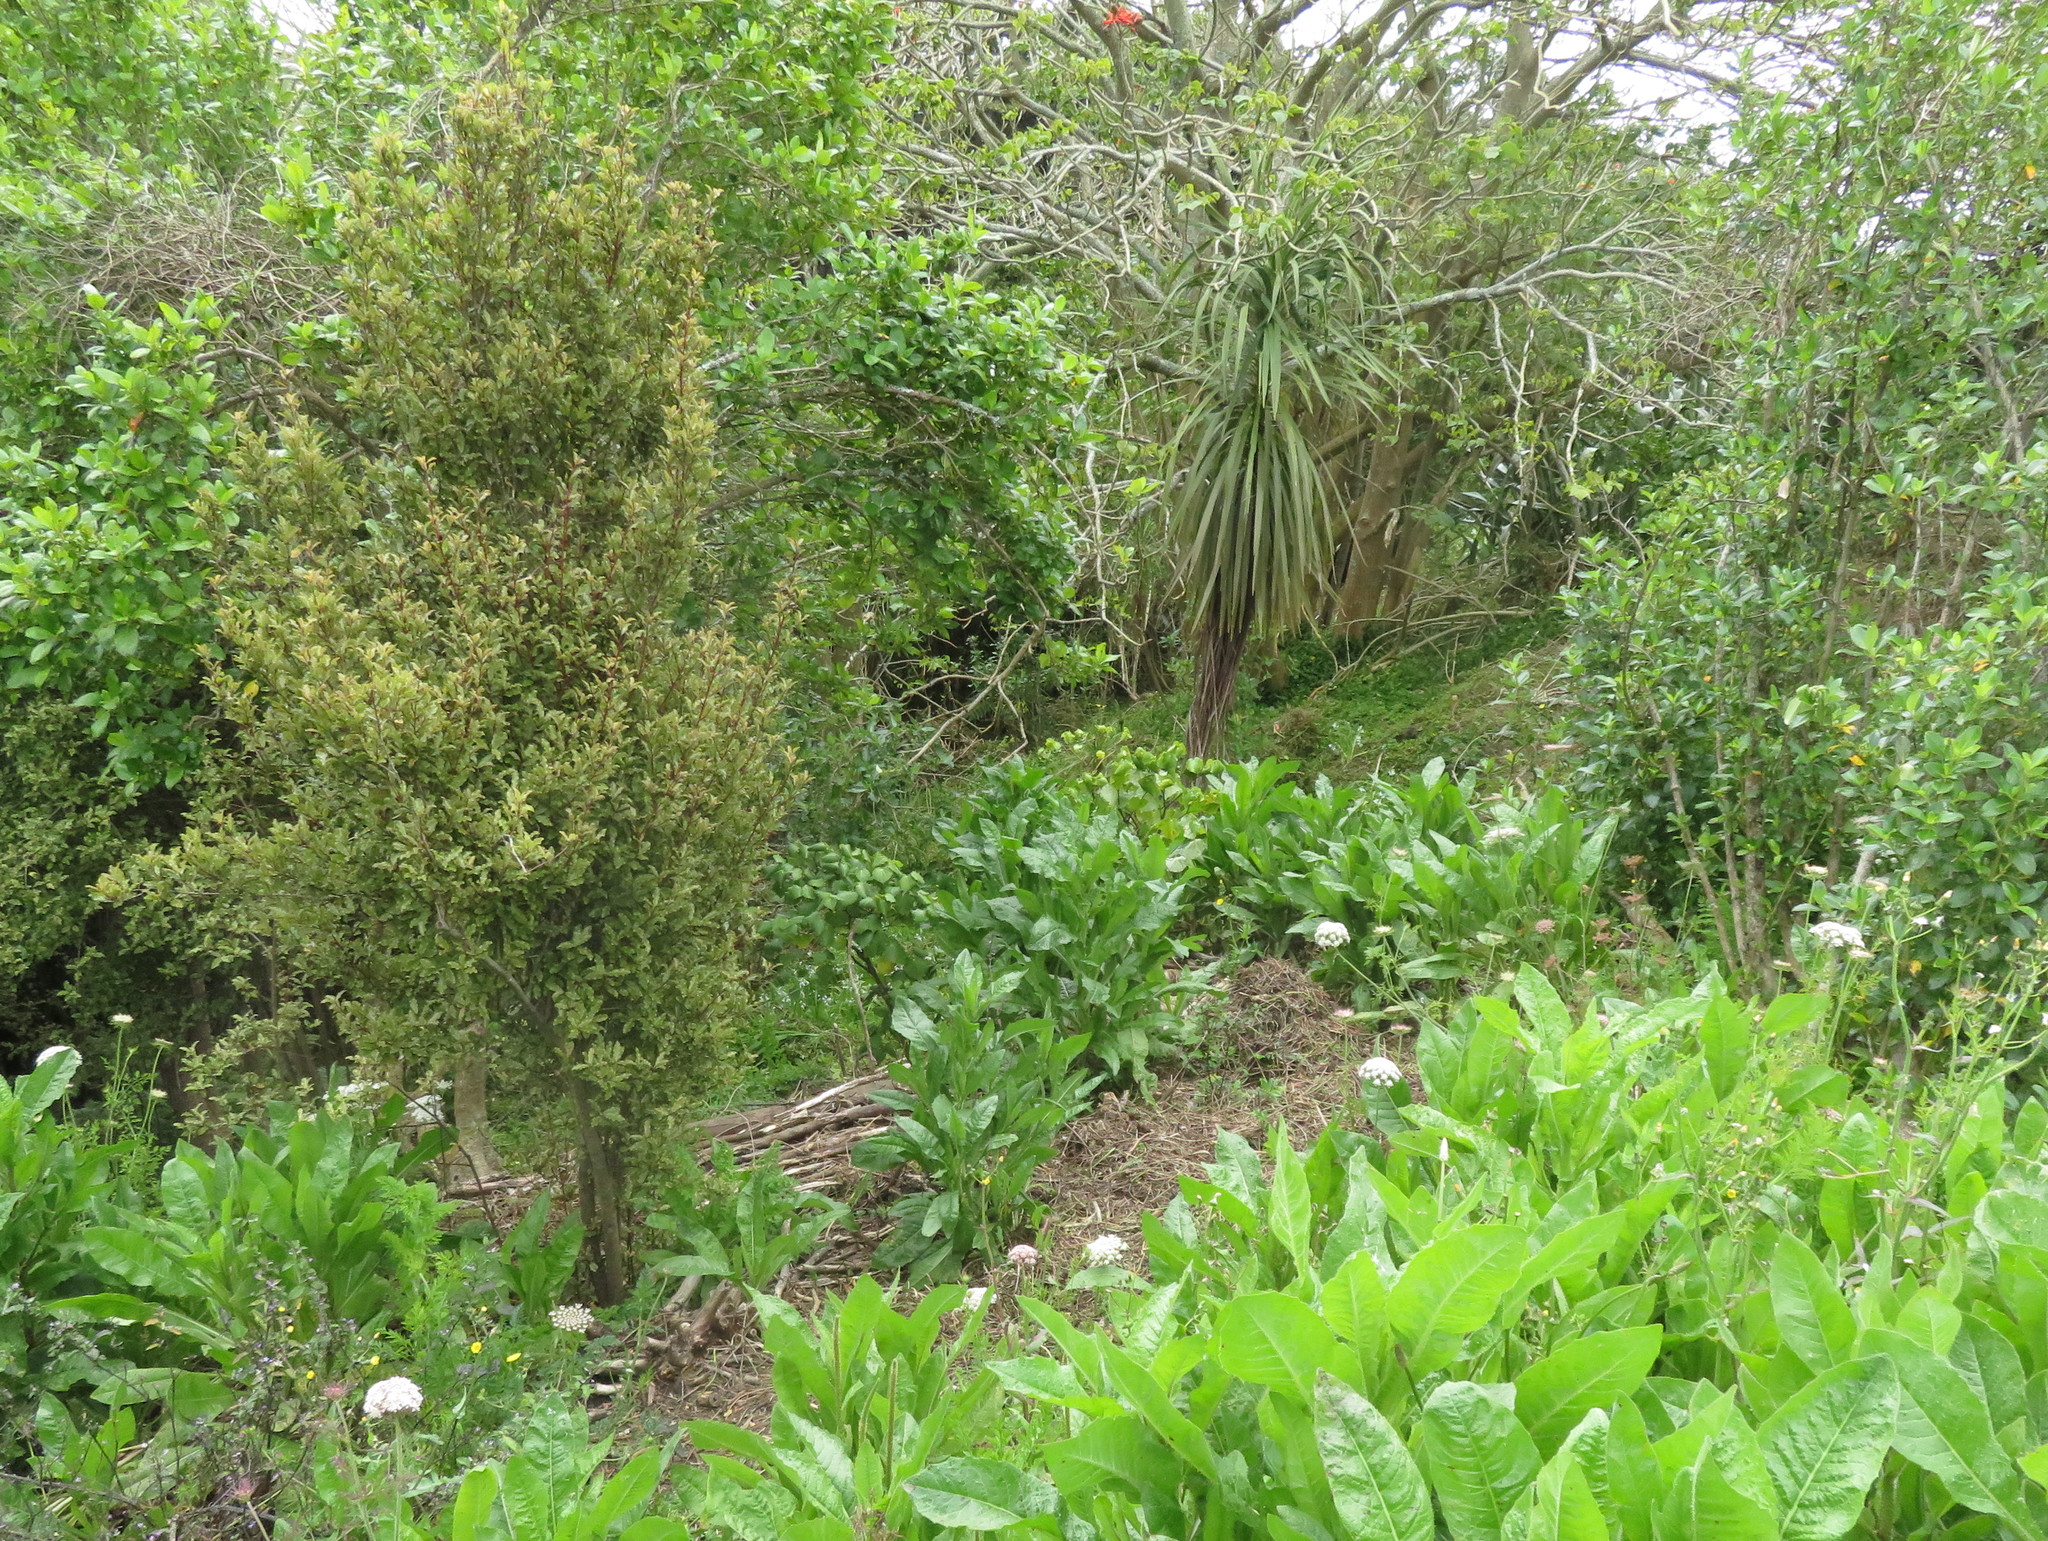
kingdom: Plantae
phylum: Tracheophyta
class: Liliopsida
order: Asparagales
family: Asparagaceae
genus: Cordyline
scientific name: Cordyline australis
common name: Cabbage-palm
